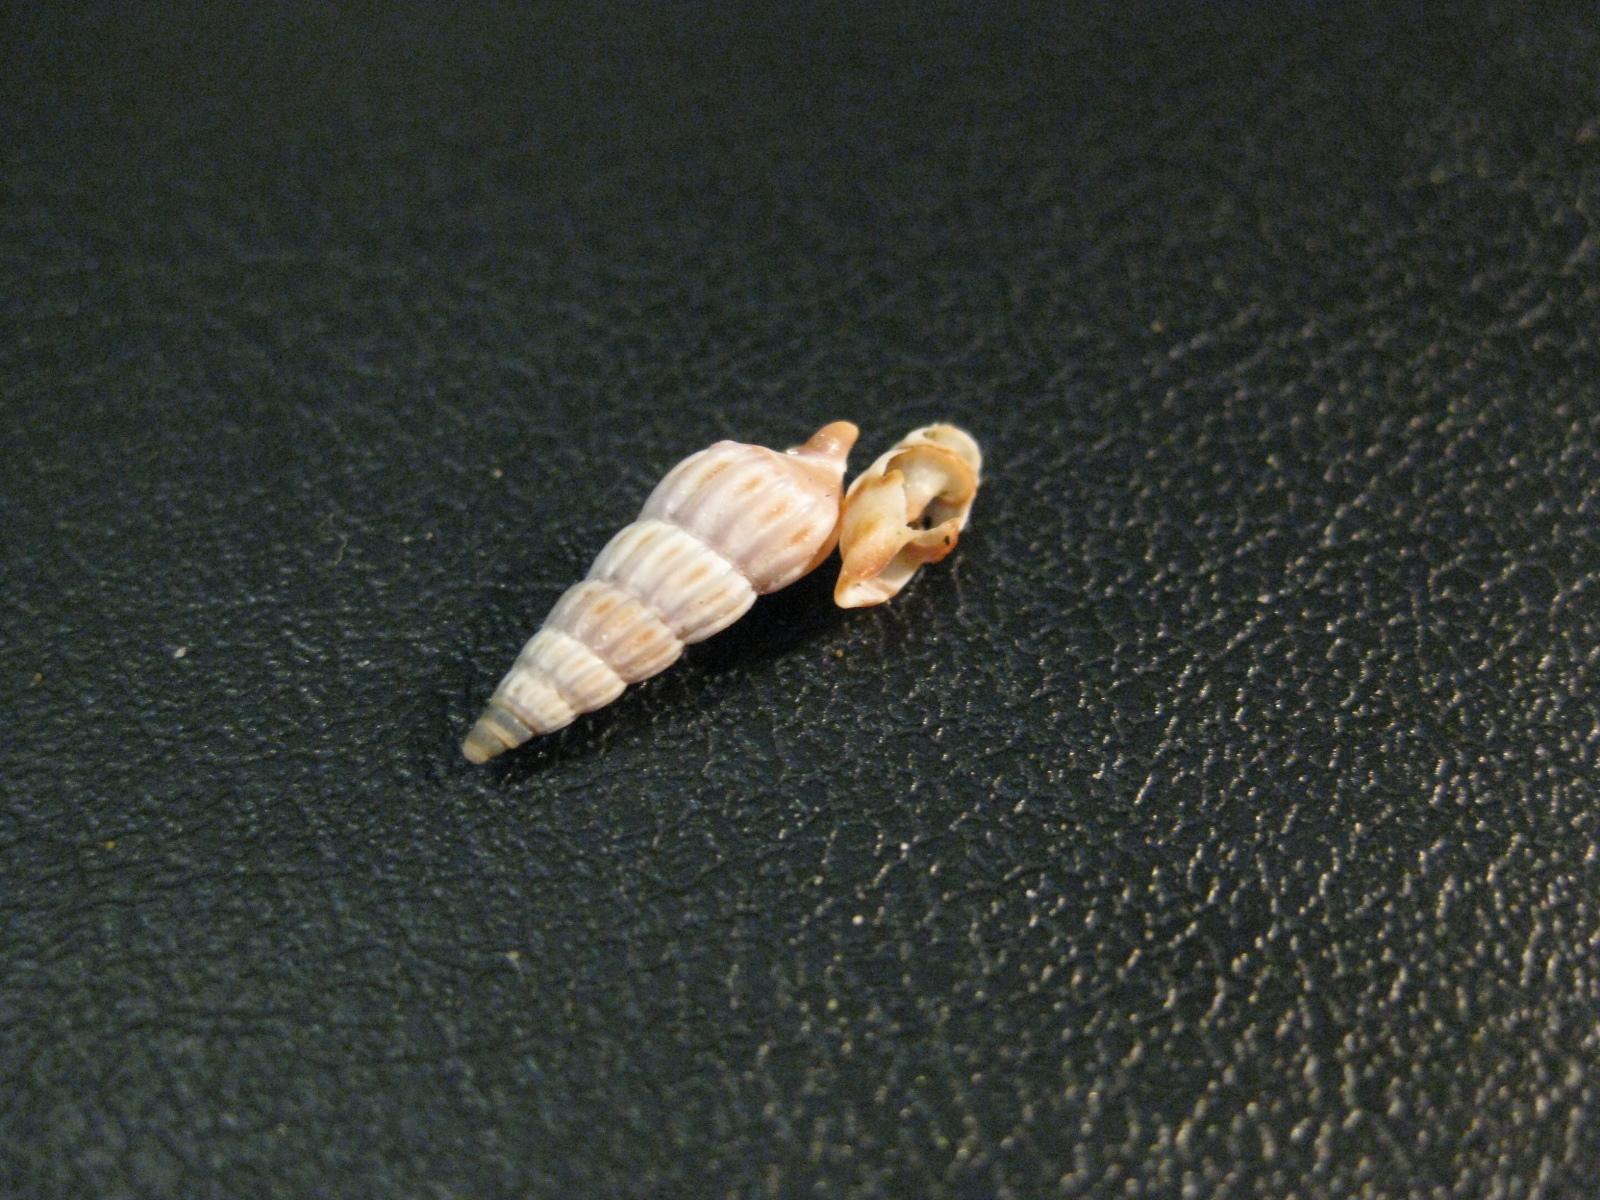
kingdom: Animalia
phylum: Mollusca
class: Gastropoda
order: Neogastropoda
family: Terebridae
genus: Duplicaria
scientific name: Duplicaria tristis
